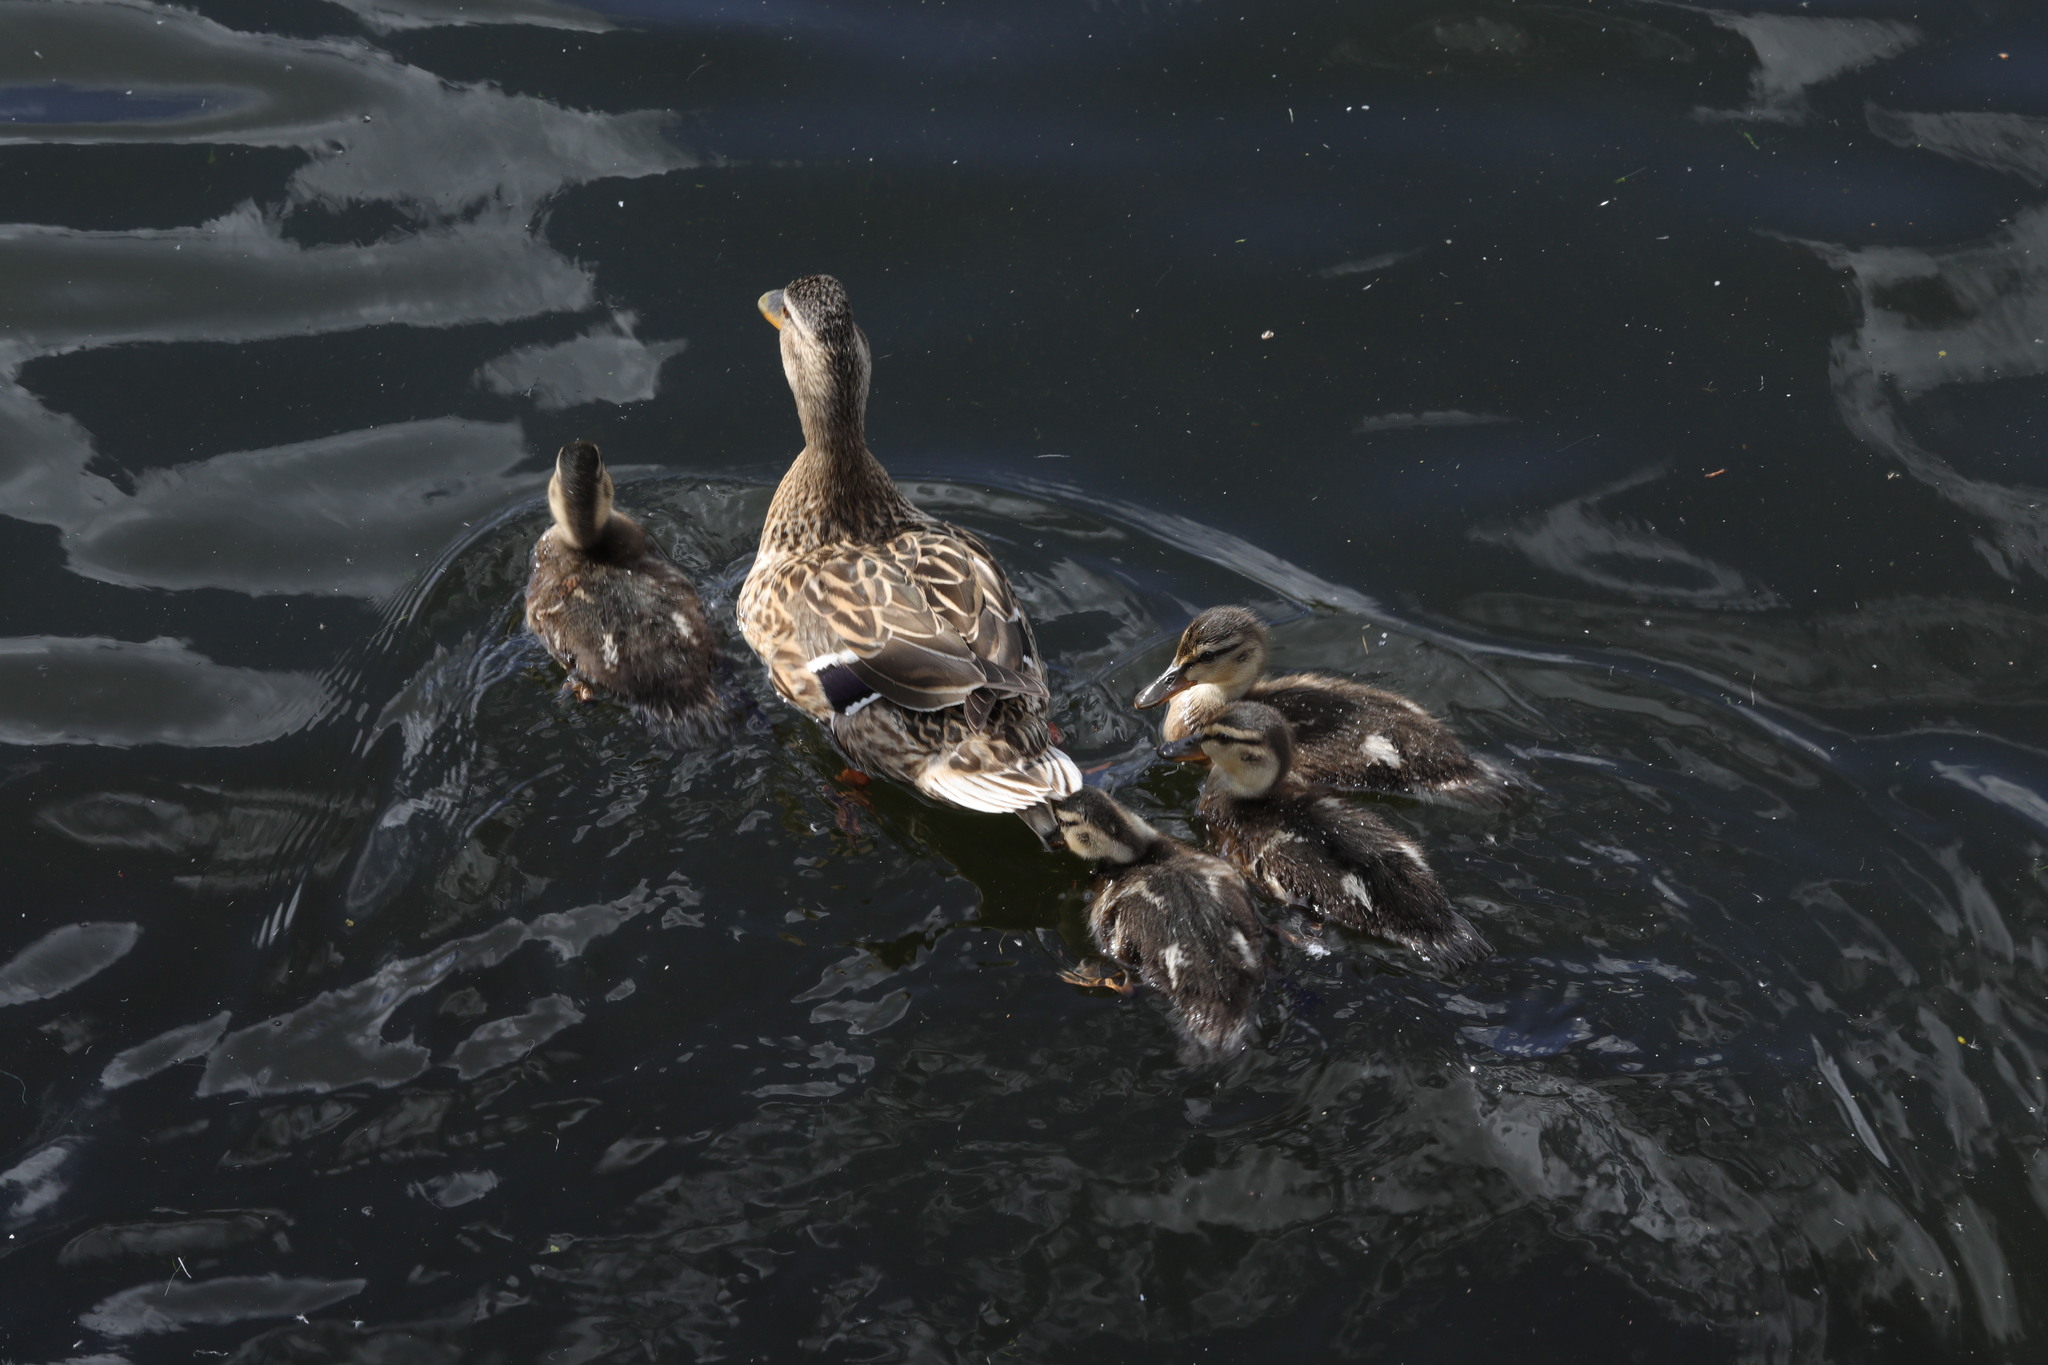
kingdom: Animalia
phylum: Chordata
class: Aves
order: Anseriformes
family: Anatidae
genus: Anas
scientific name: Anas platyrhynchos
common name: Mallard
